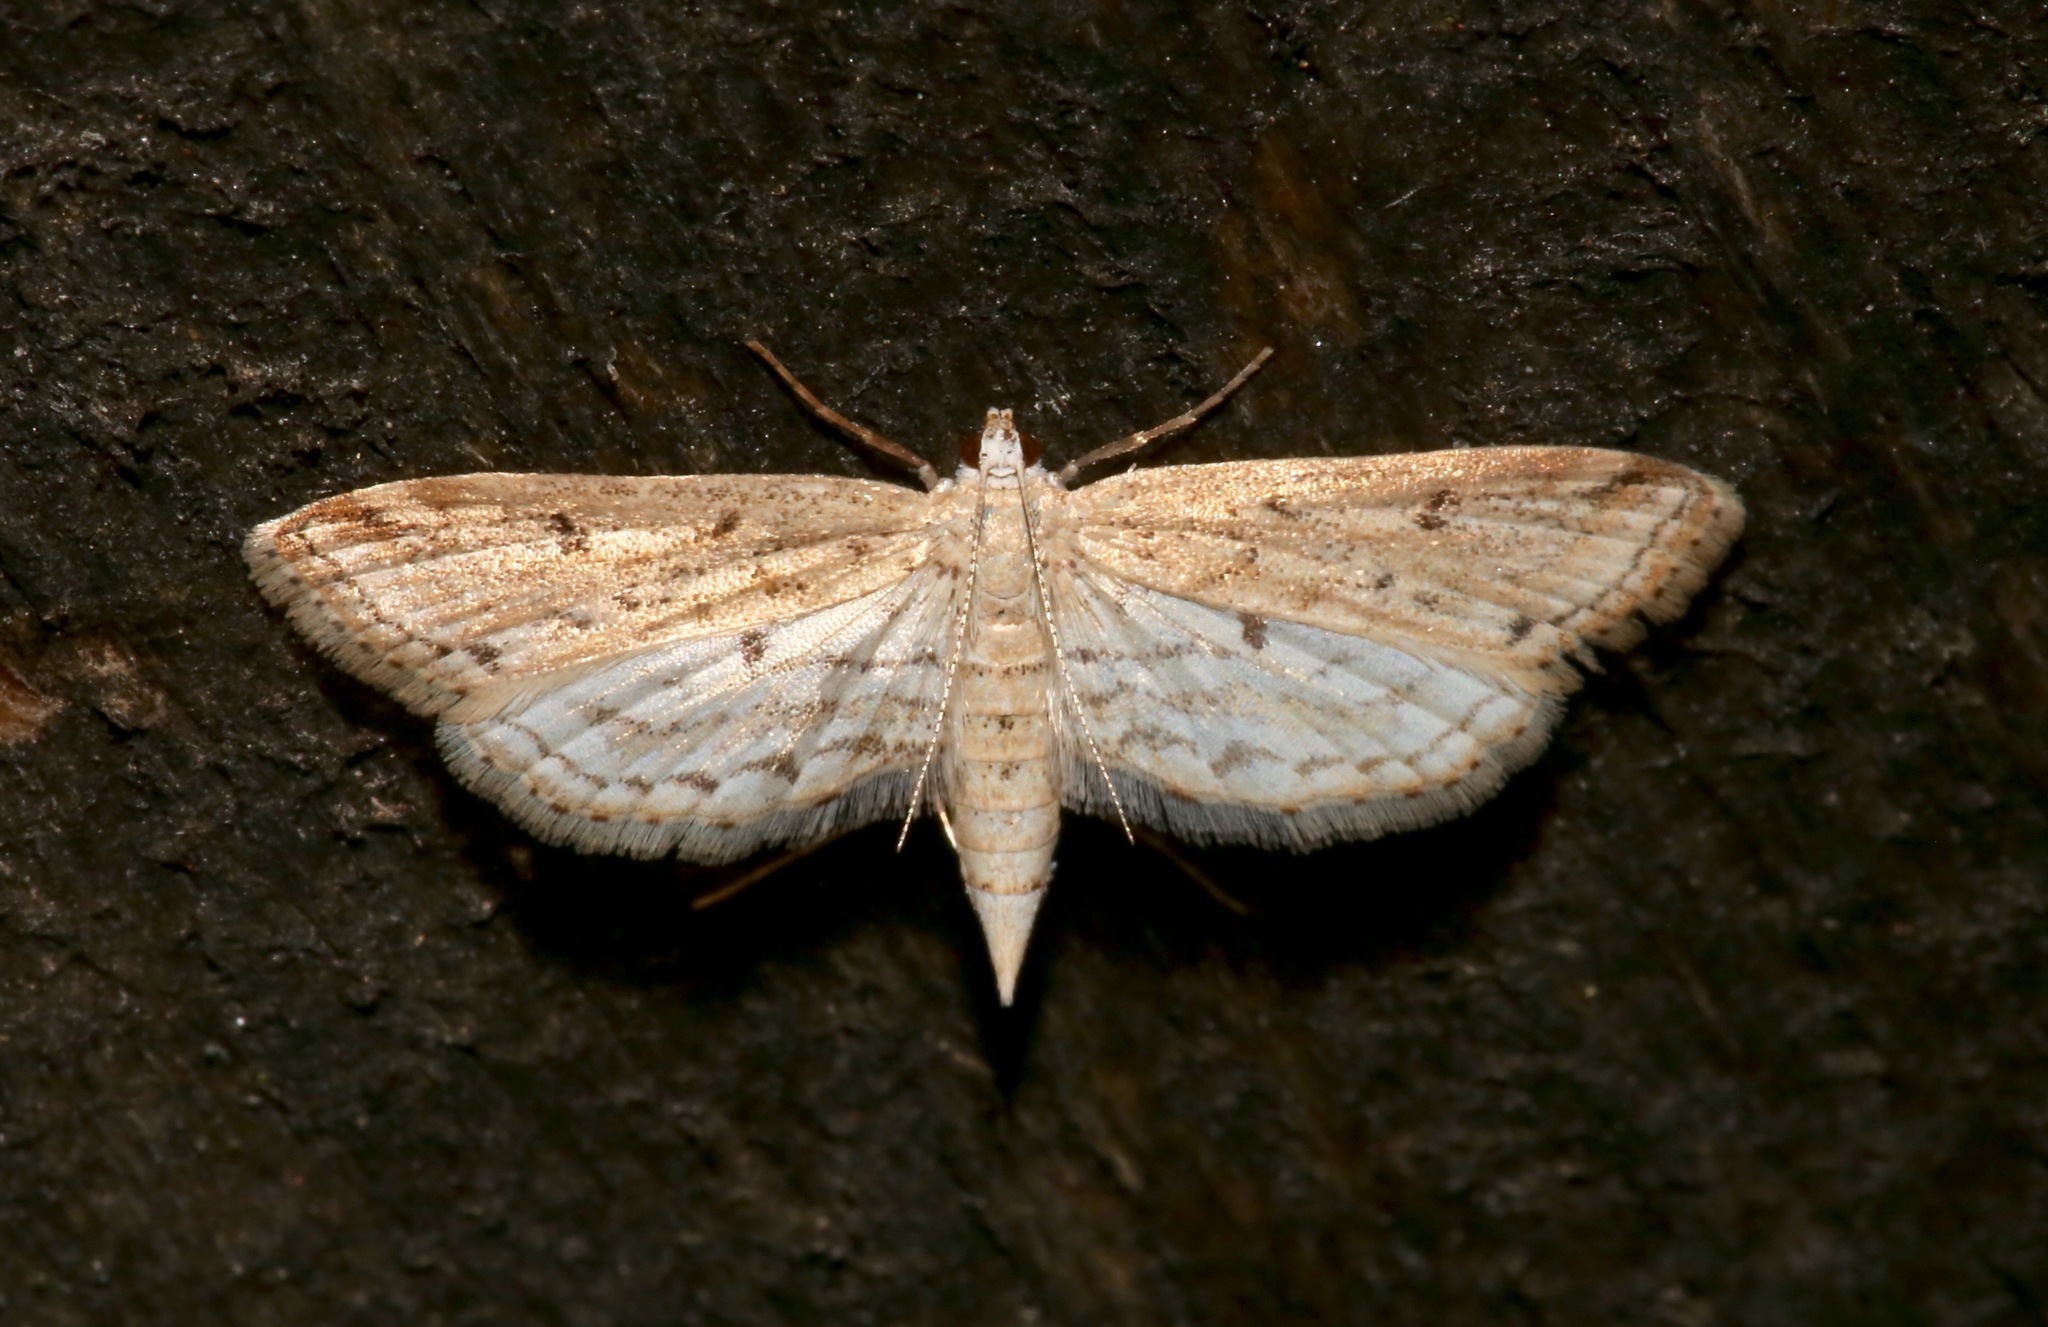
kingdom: Animalia
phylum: Arthropoda
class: Insecta
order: Lepidoptera
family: Crambidae
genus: Parapoynx
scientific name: Parapoynx allionealis
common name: Bladderwort casemaker
